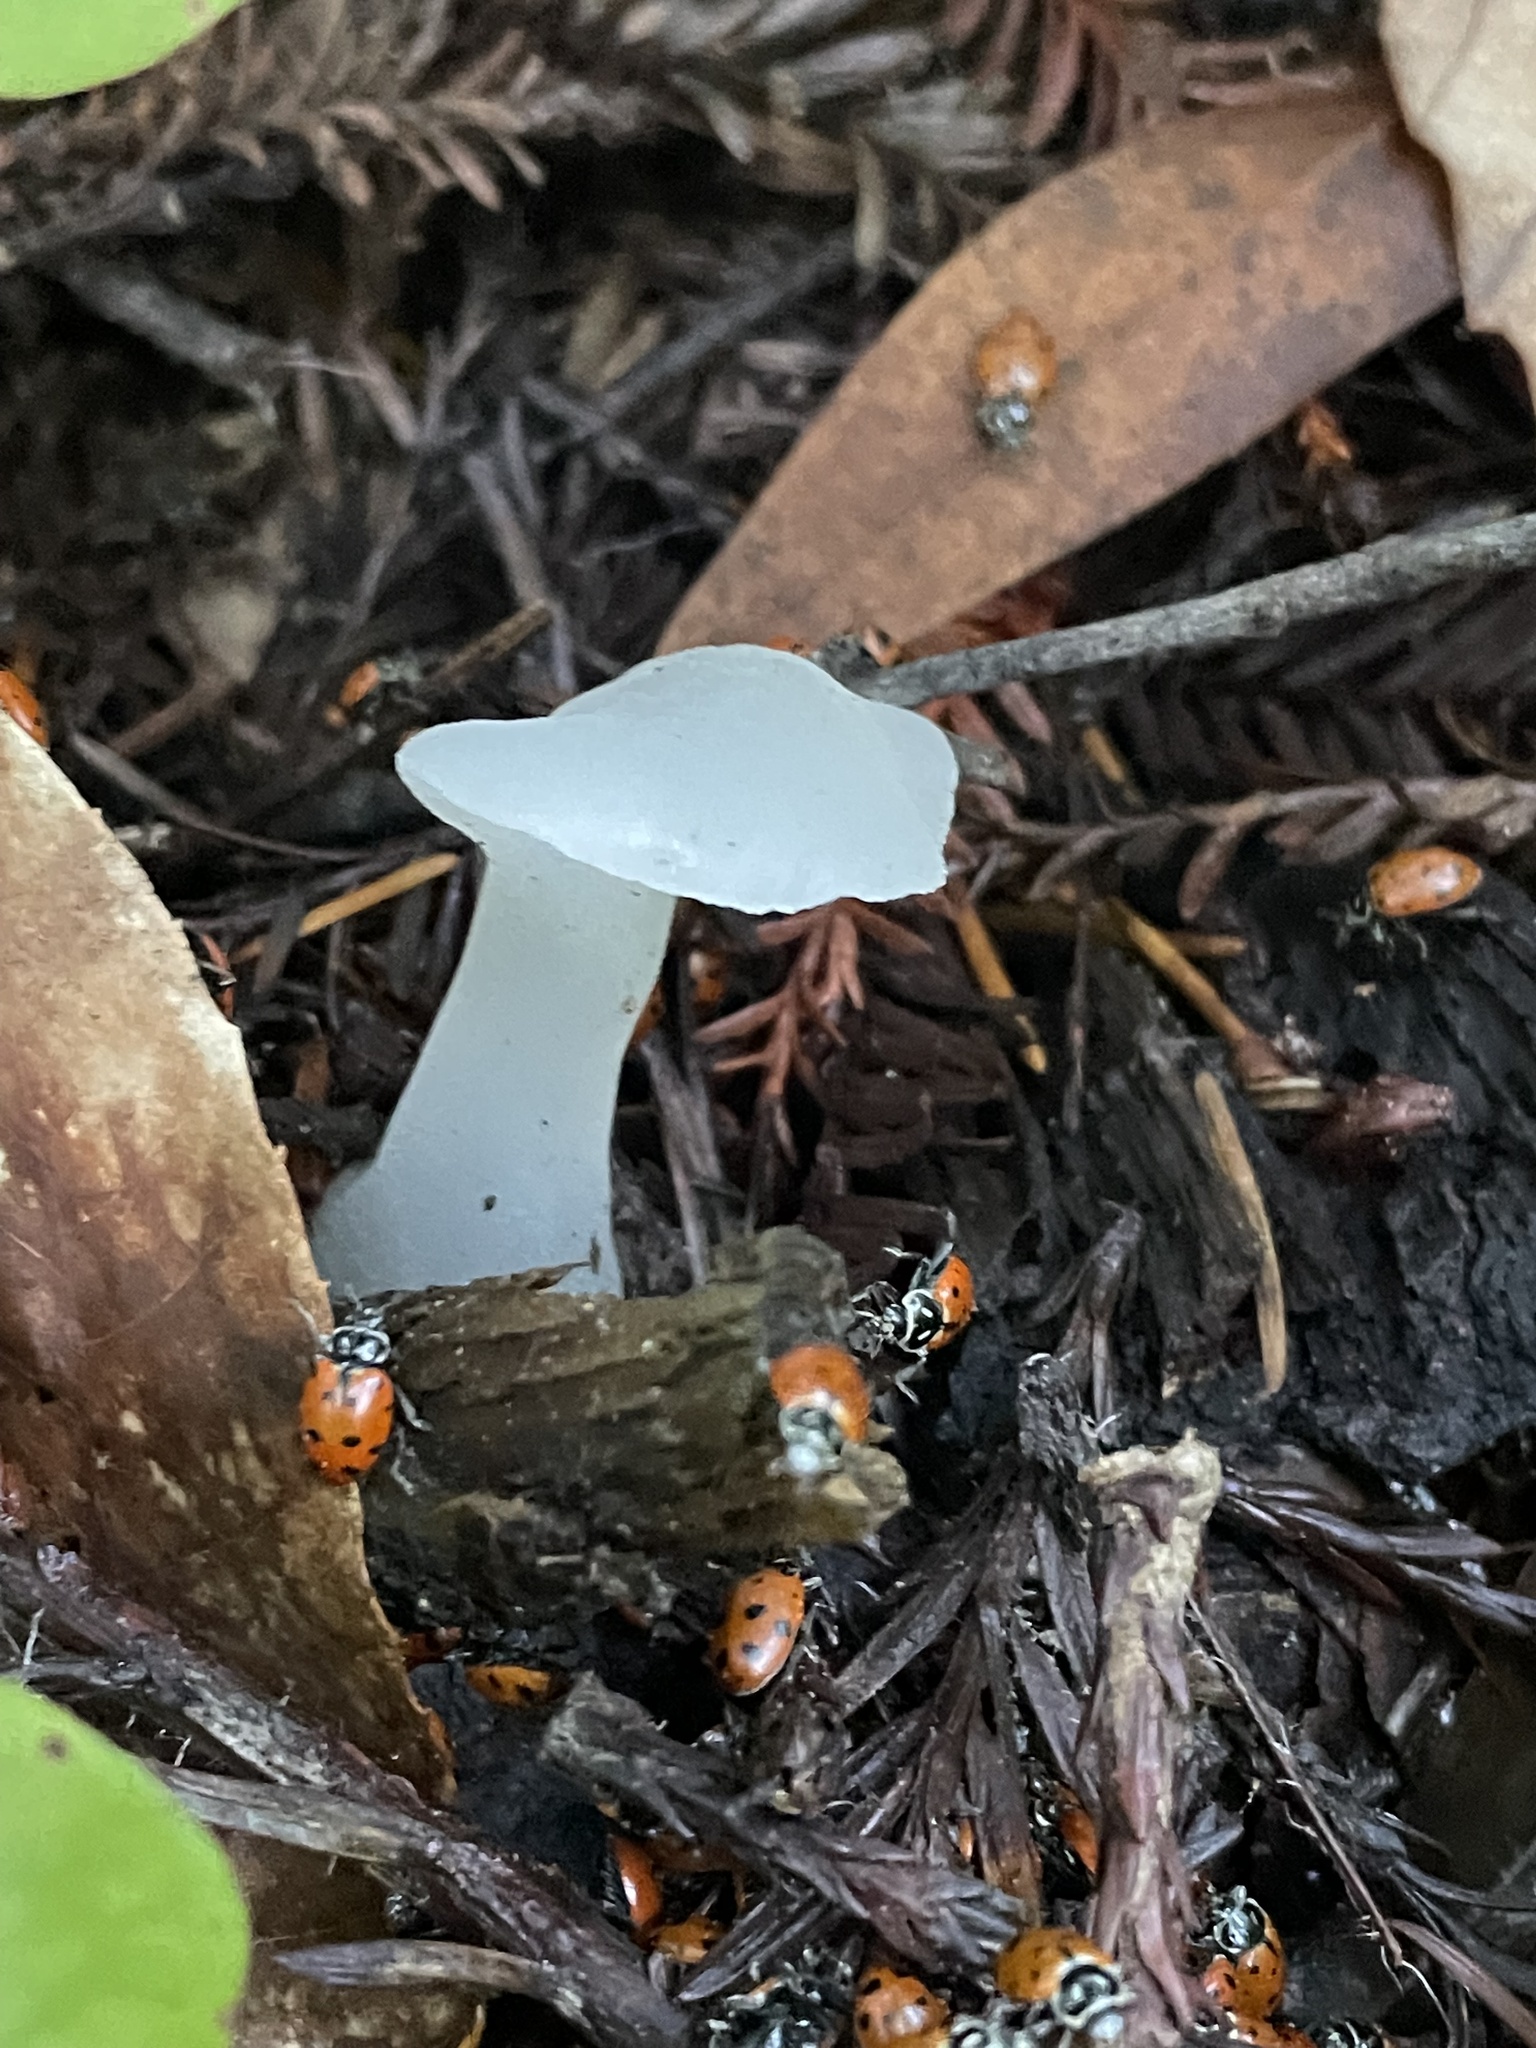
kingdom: Fungi
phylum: Basidiomycota
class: Agaricomycetes
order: Auriculariales
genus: Pseudohydnum
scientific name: Pseudohydnum gelatinosum
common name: Jelly tongue
